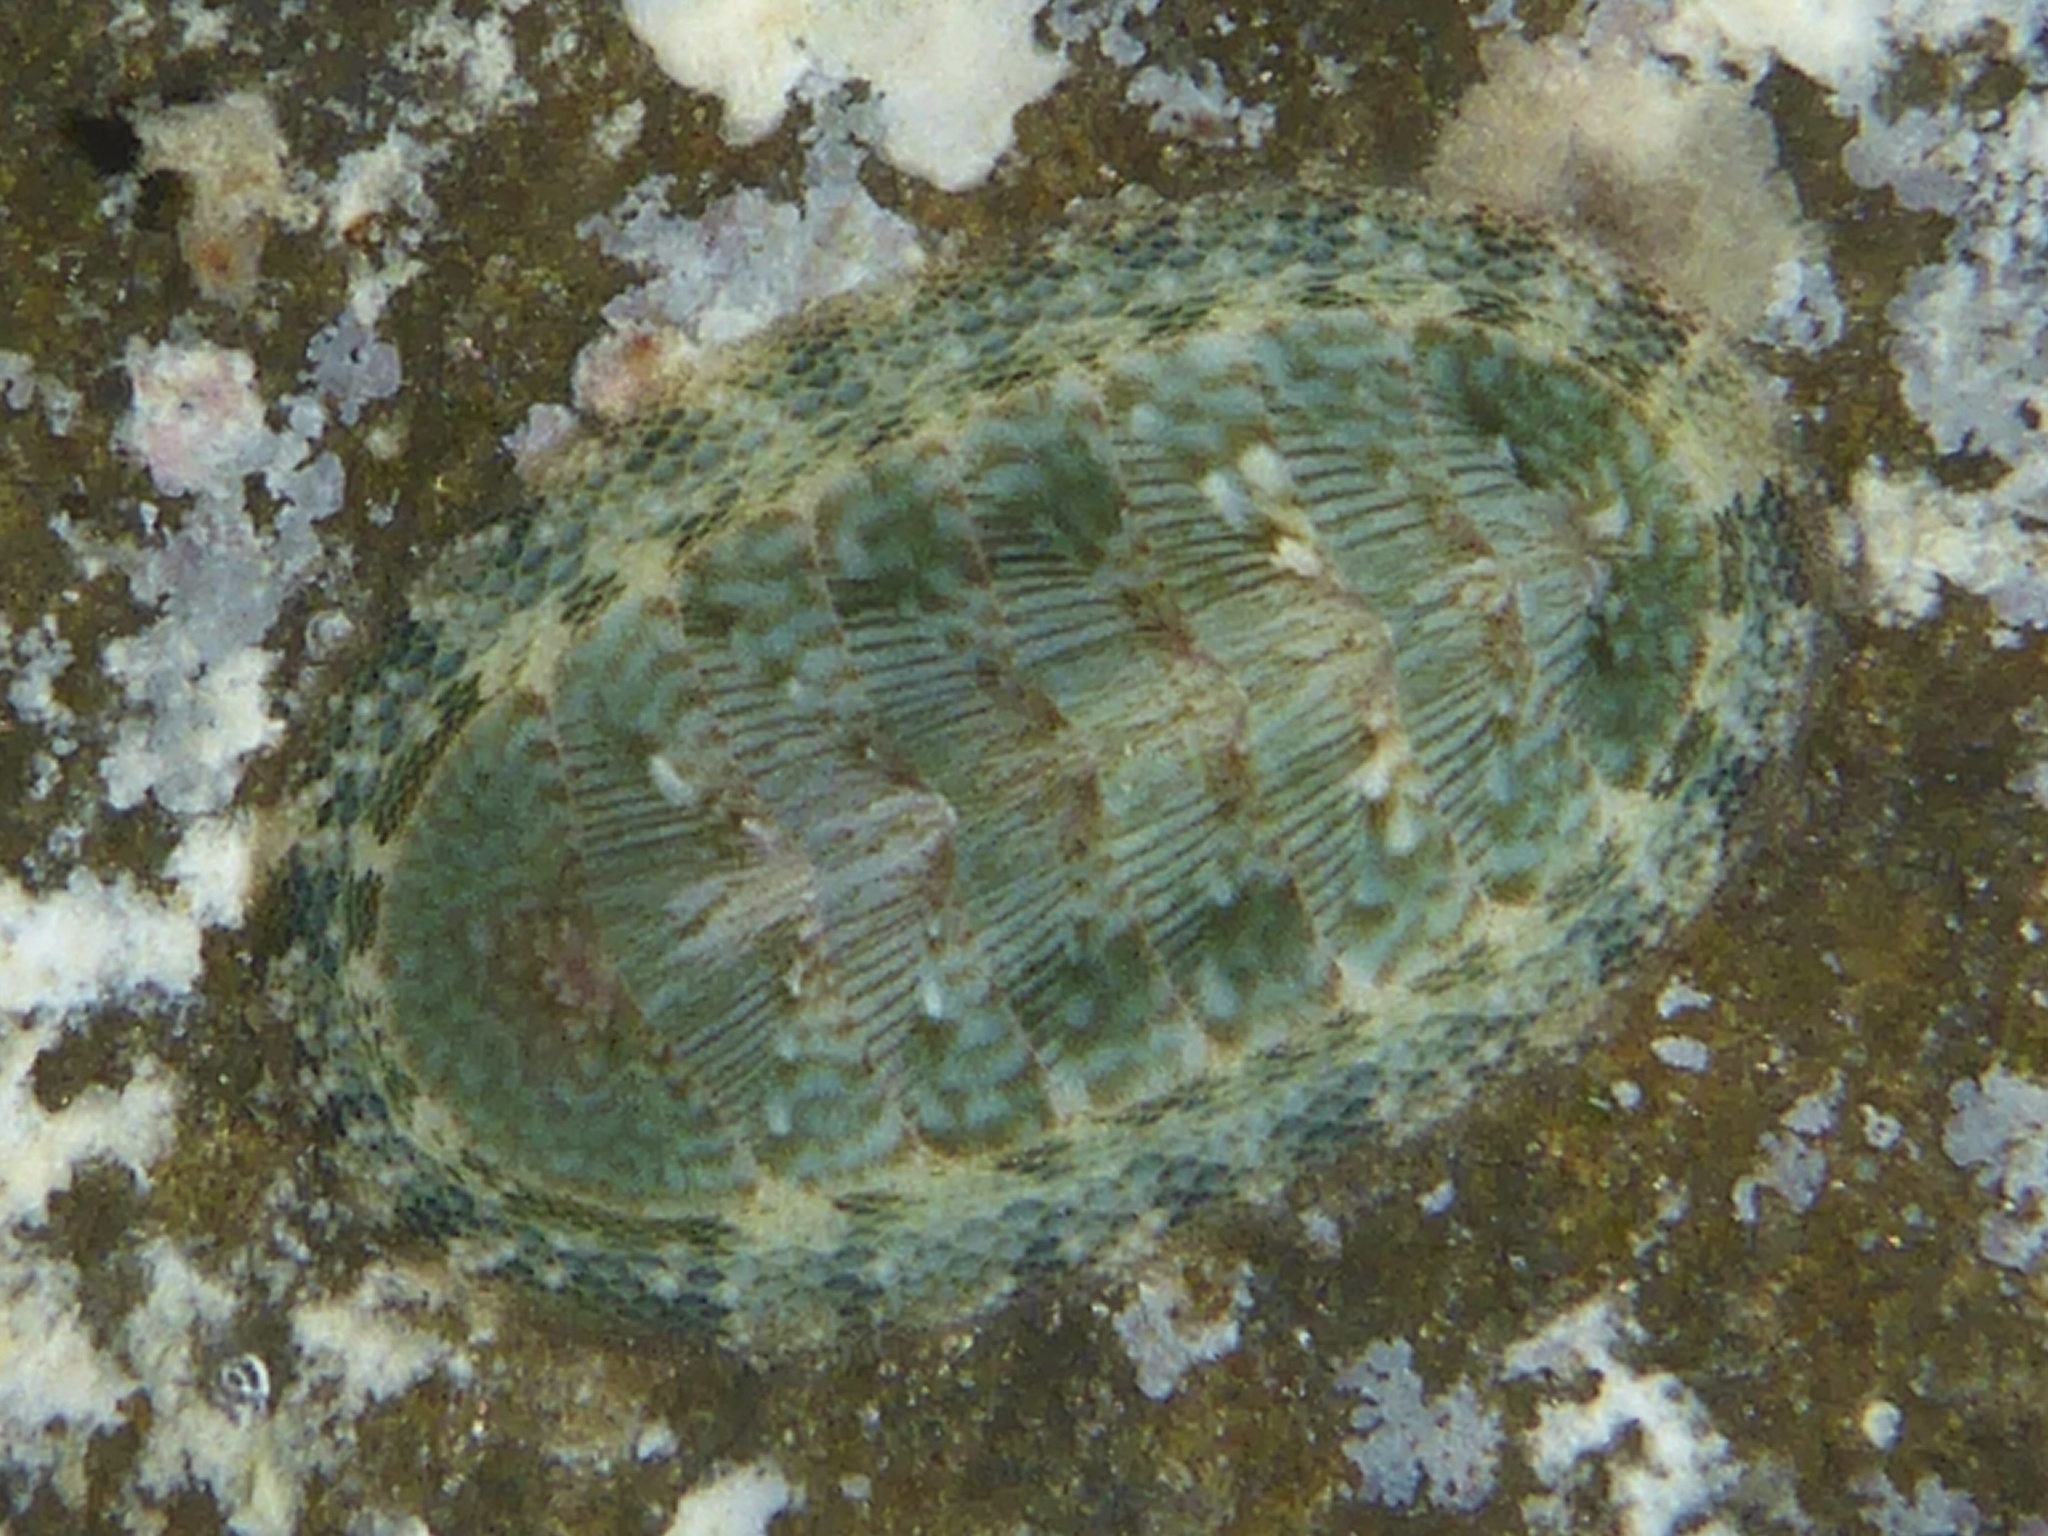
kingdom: Animalia
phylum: Mollusca
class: Polyplacophora
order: Chitonida
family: Chitonidae
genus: Rhyssoplax
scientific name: Rhyssoplax linsleyi
